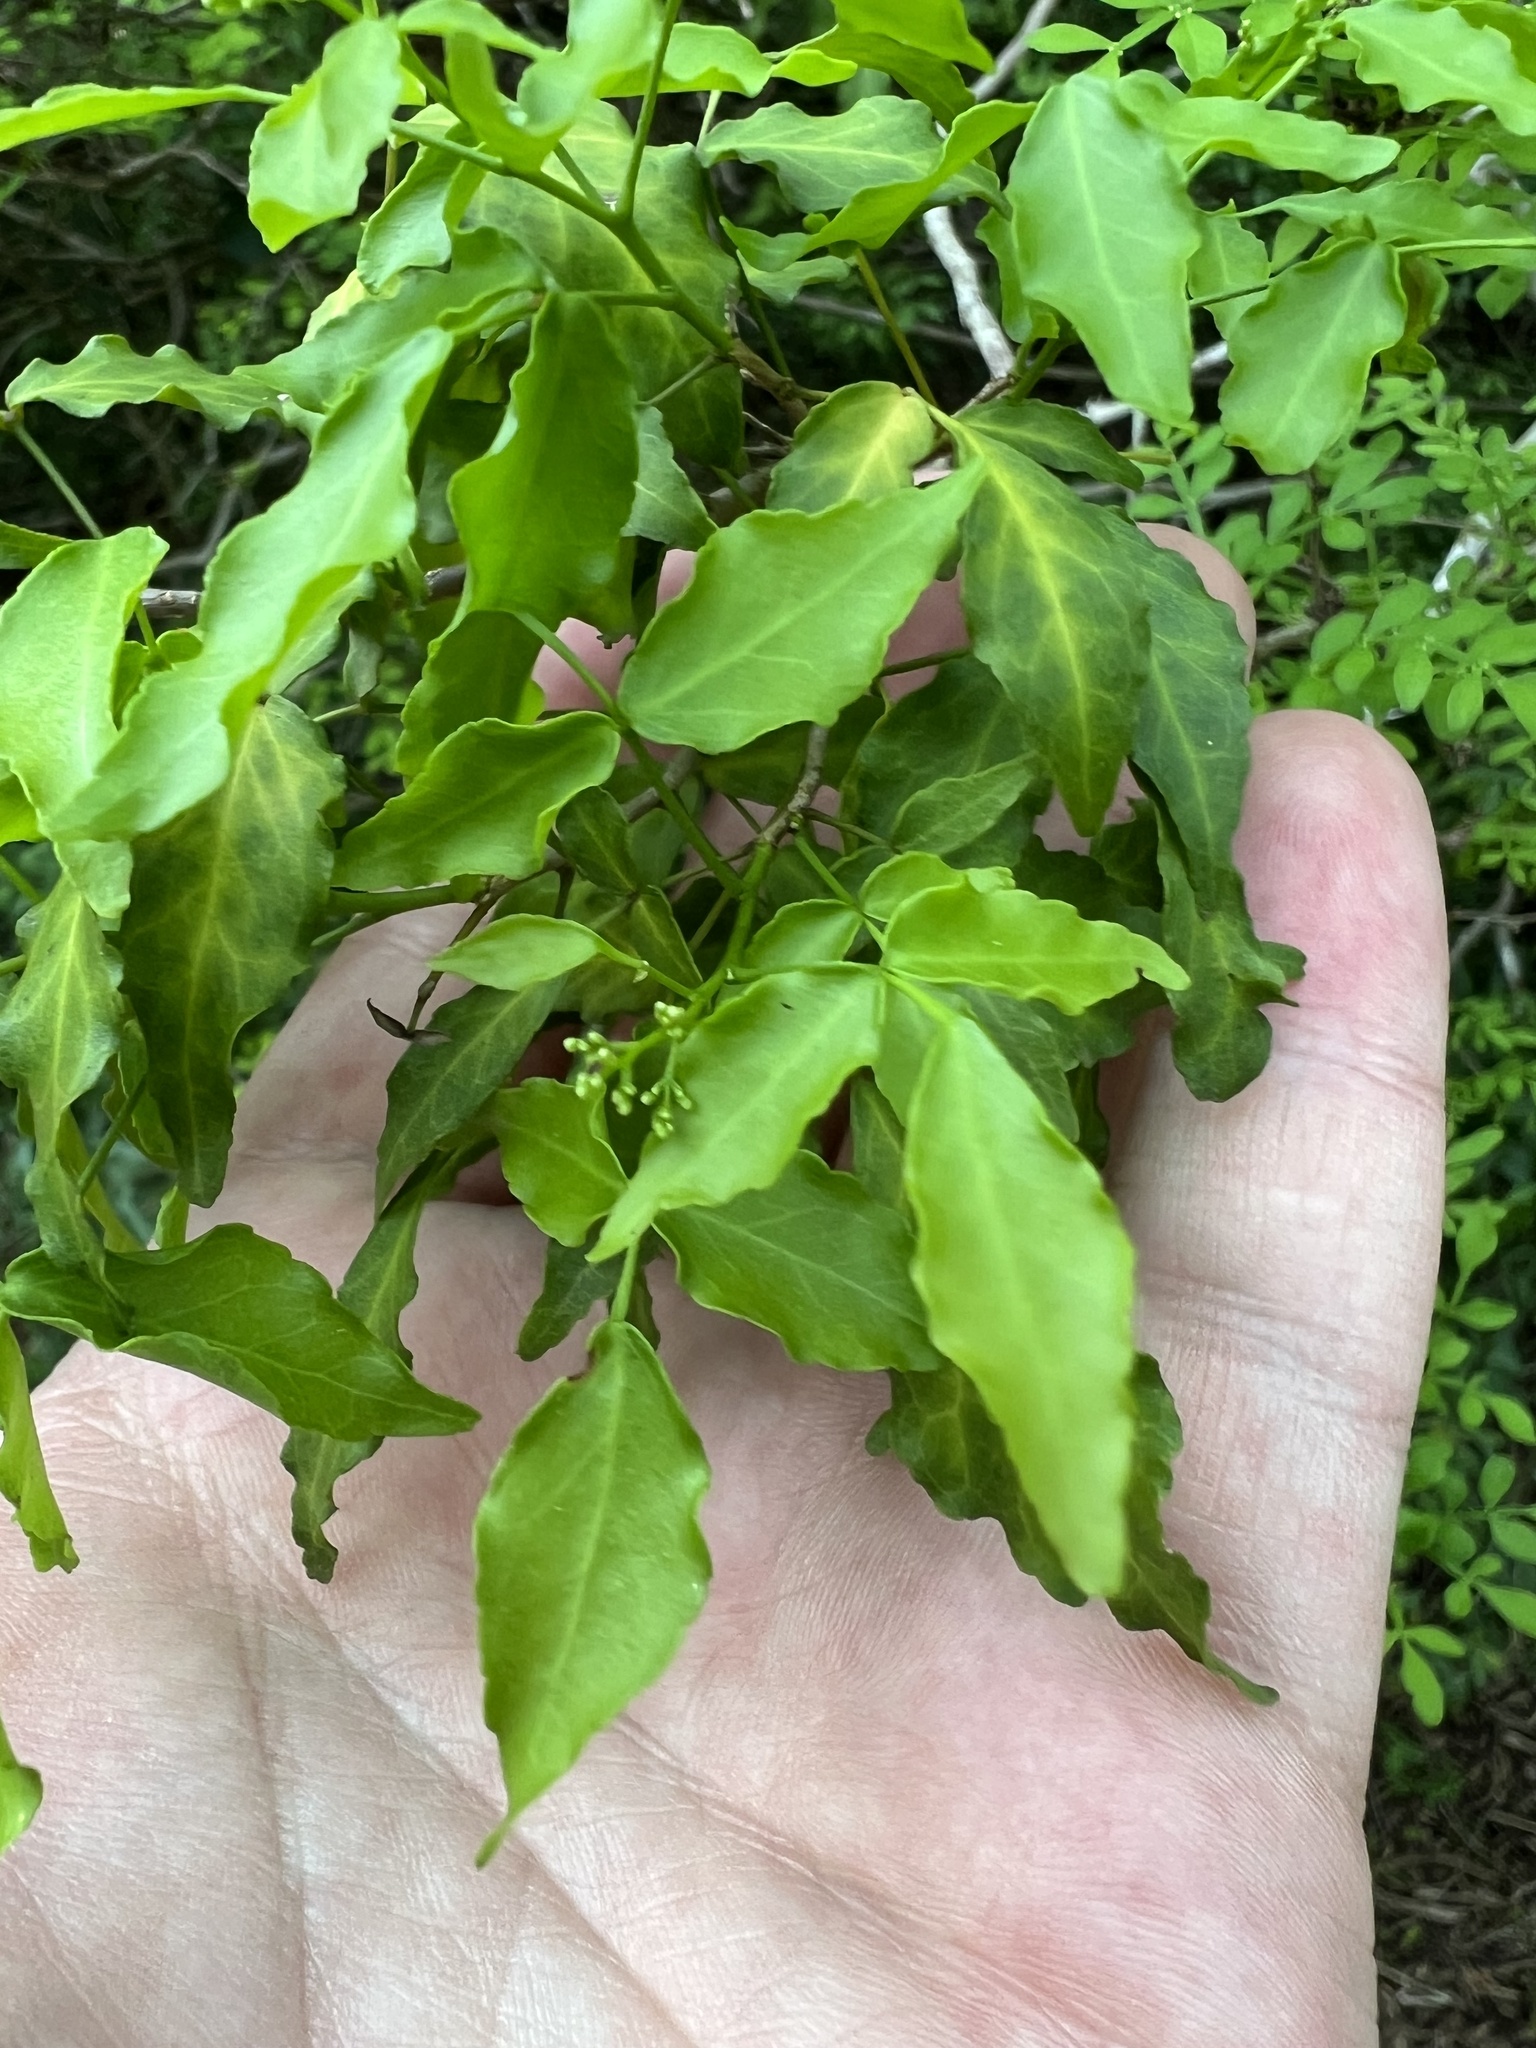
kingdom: Plantae
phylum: Tracheophyta
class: Magnoliopsida
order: Sapindales
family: Rutaceae
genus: Amyris
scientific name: Amyris texana
